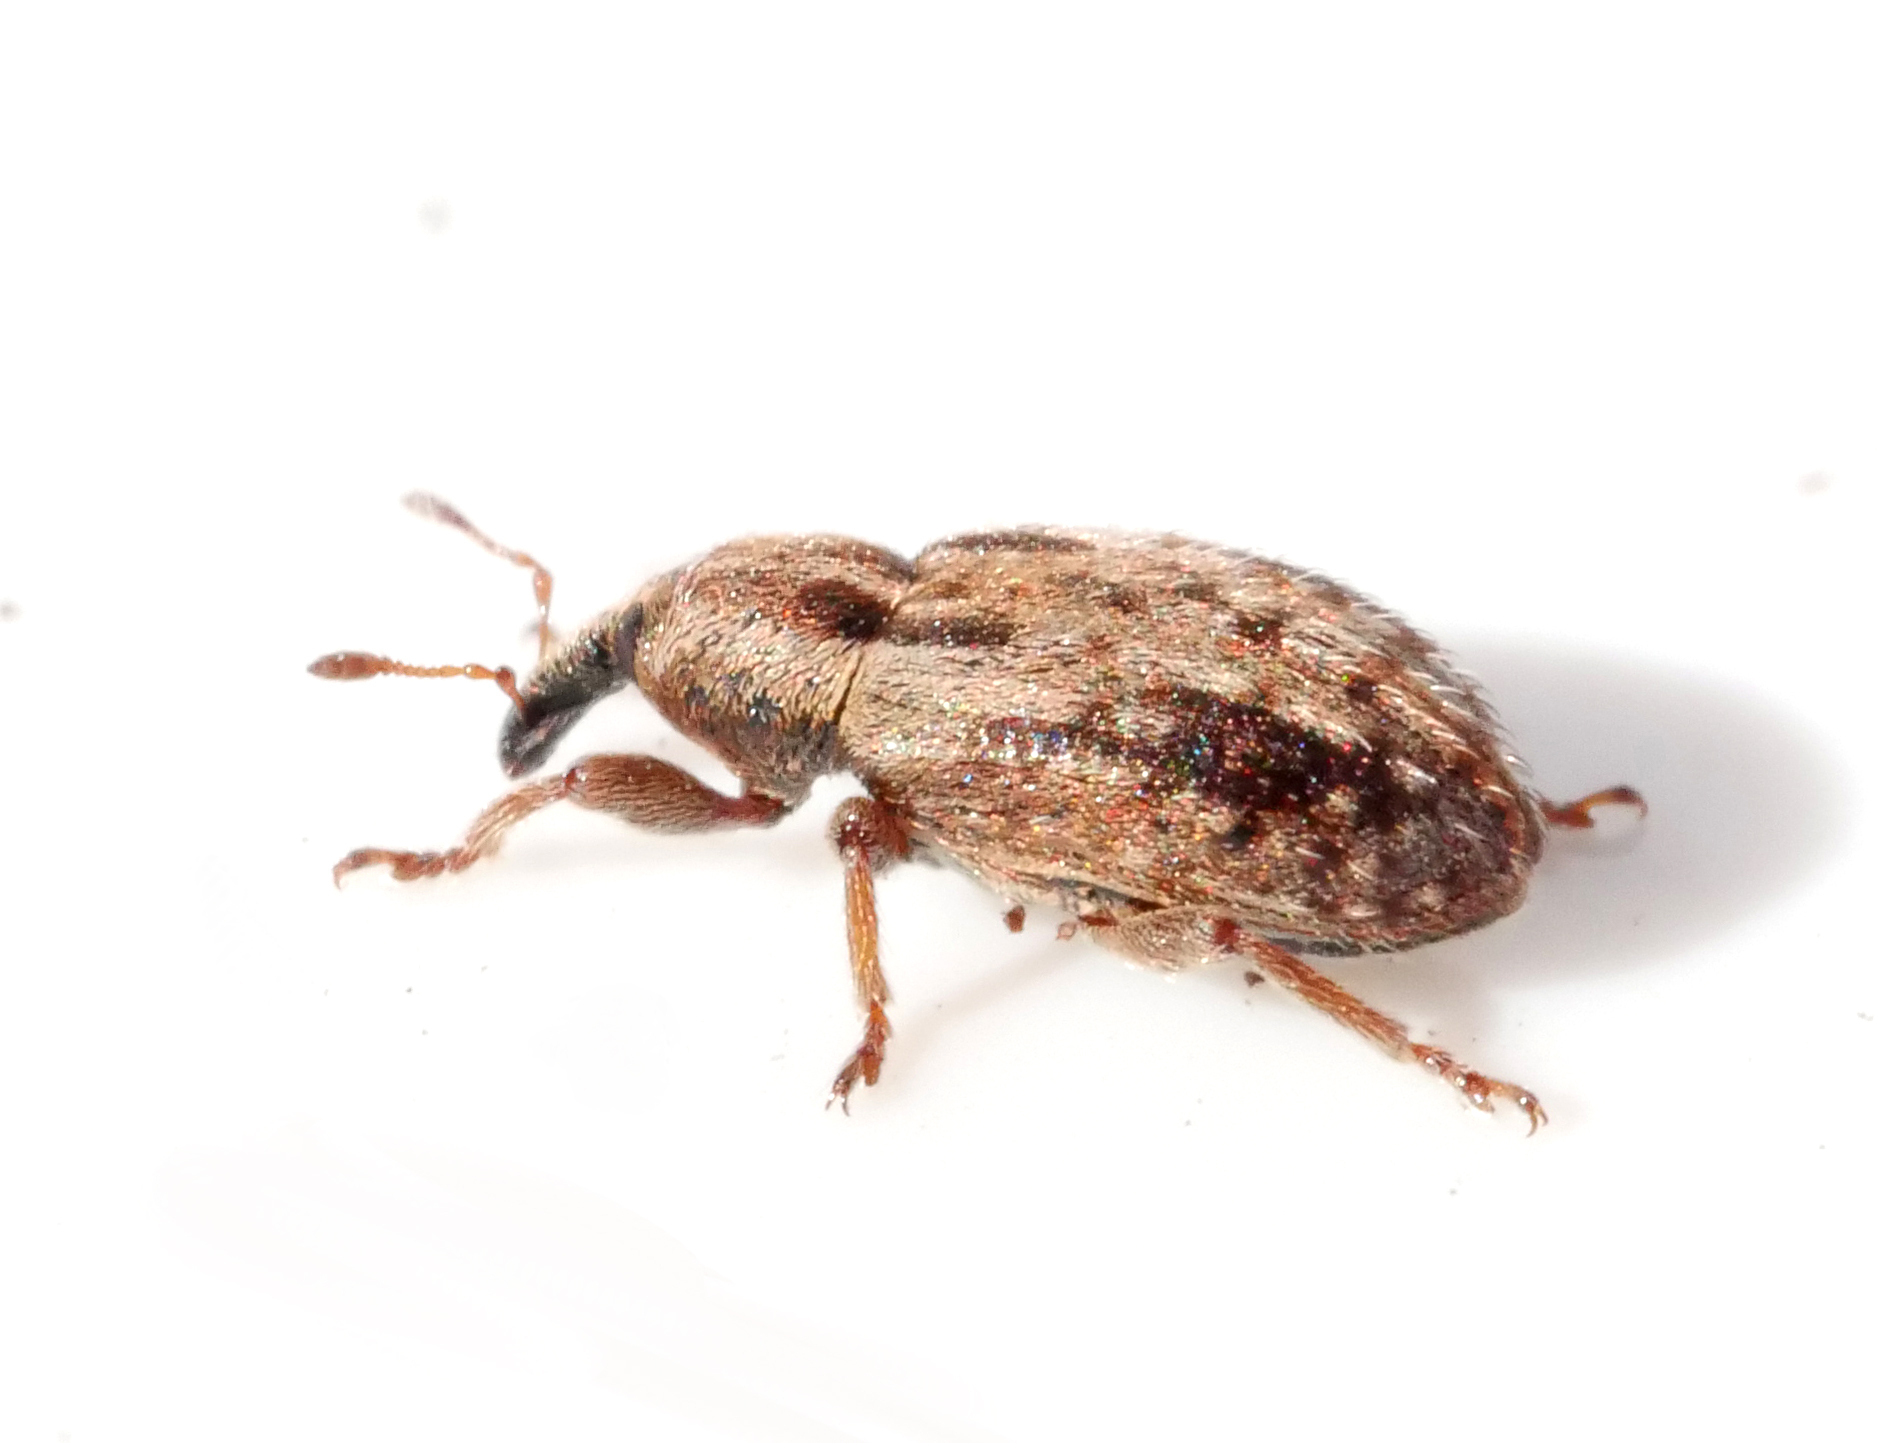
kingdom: Animalia
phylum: Arthropoda
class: Insecta
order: Coleoptera
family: Curculionidae
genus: Hypera
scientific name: Hypera venusta
